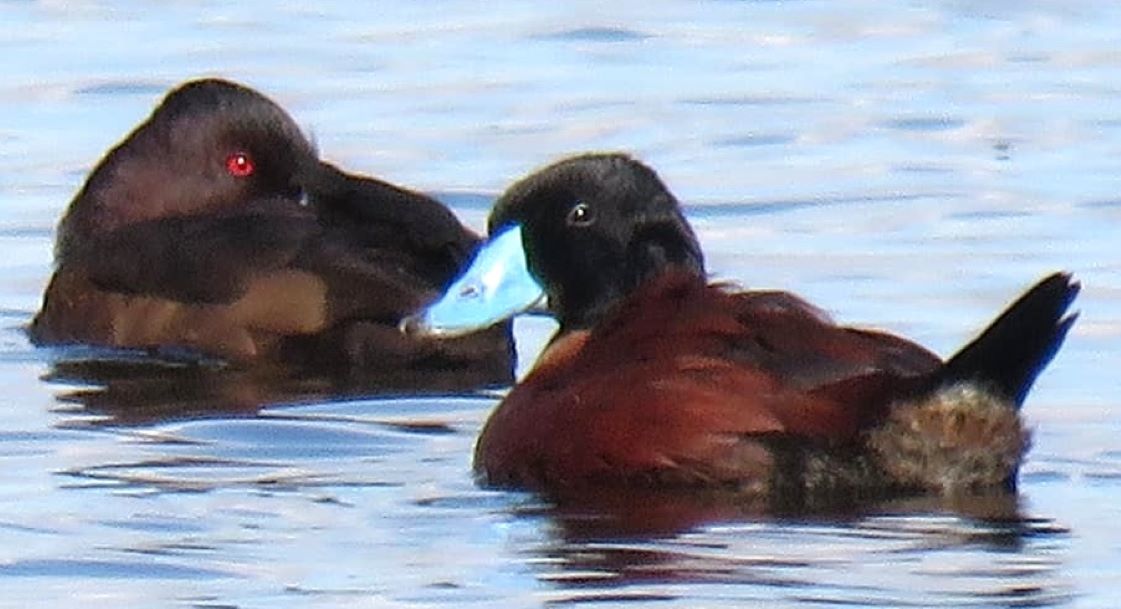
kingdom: Animalia
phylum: Chordata
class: Aves
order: Anseriformes
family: Anatidae
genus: Oxyura
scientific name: Oxyura maccoa
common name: Maccoa duck
